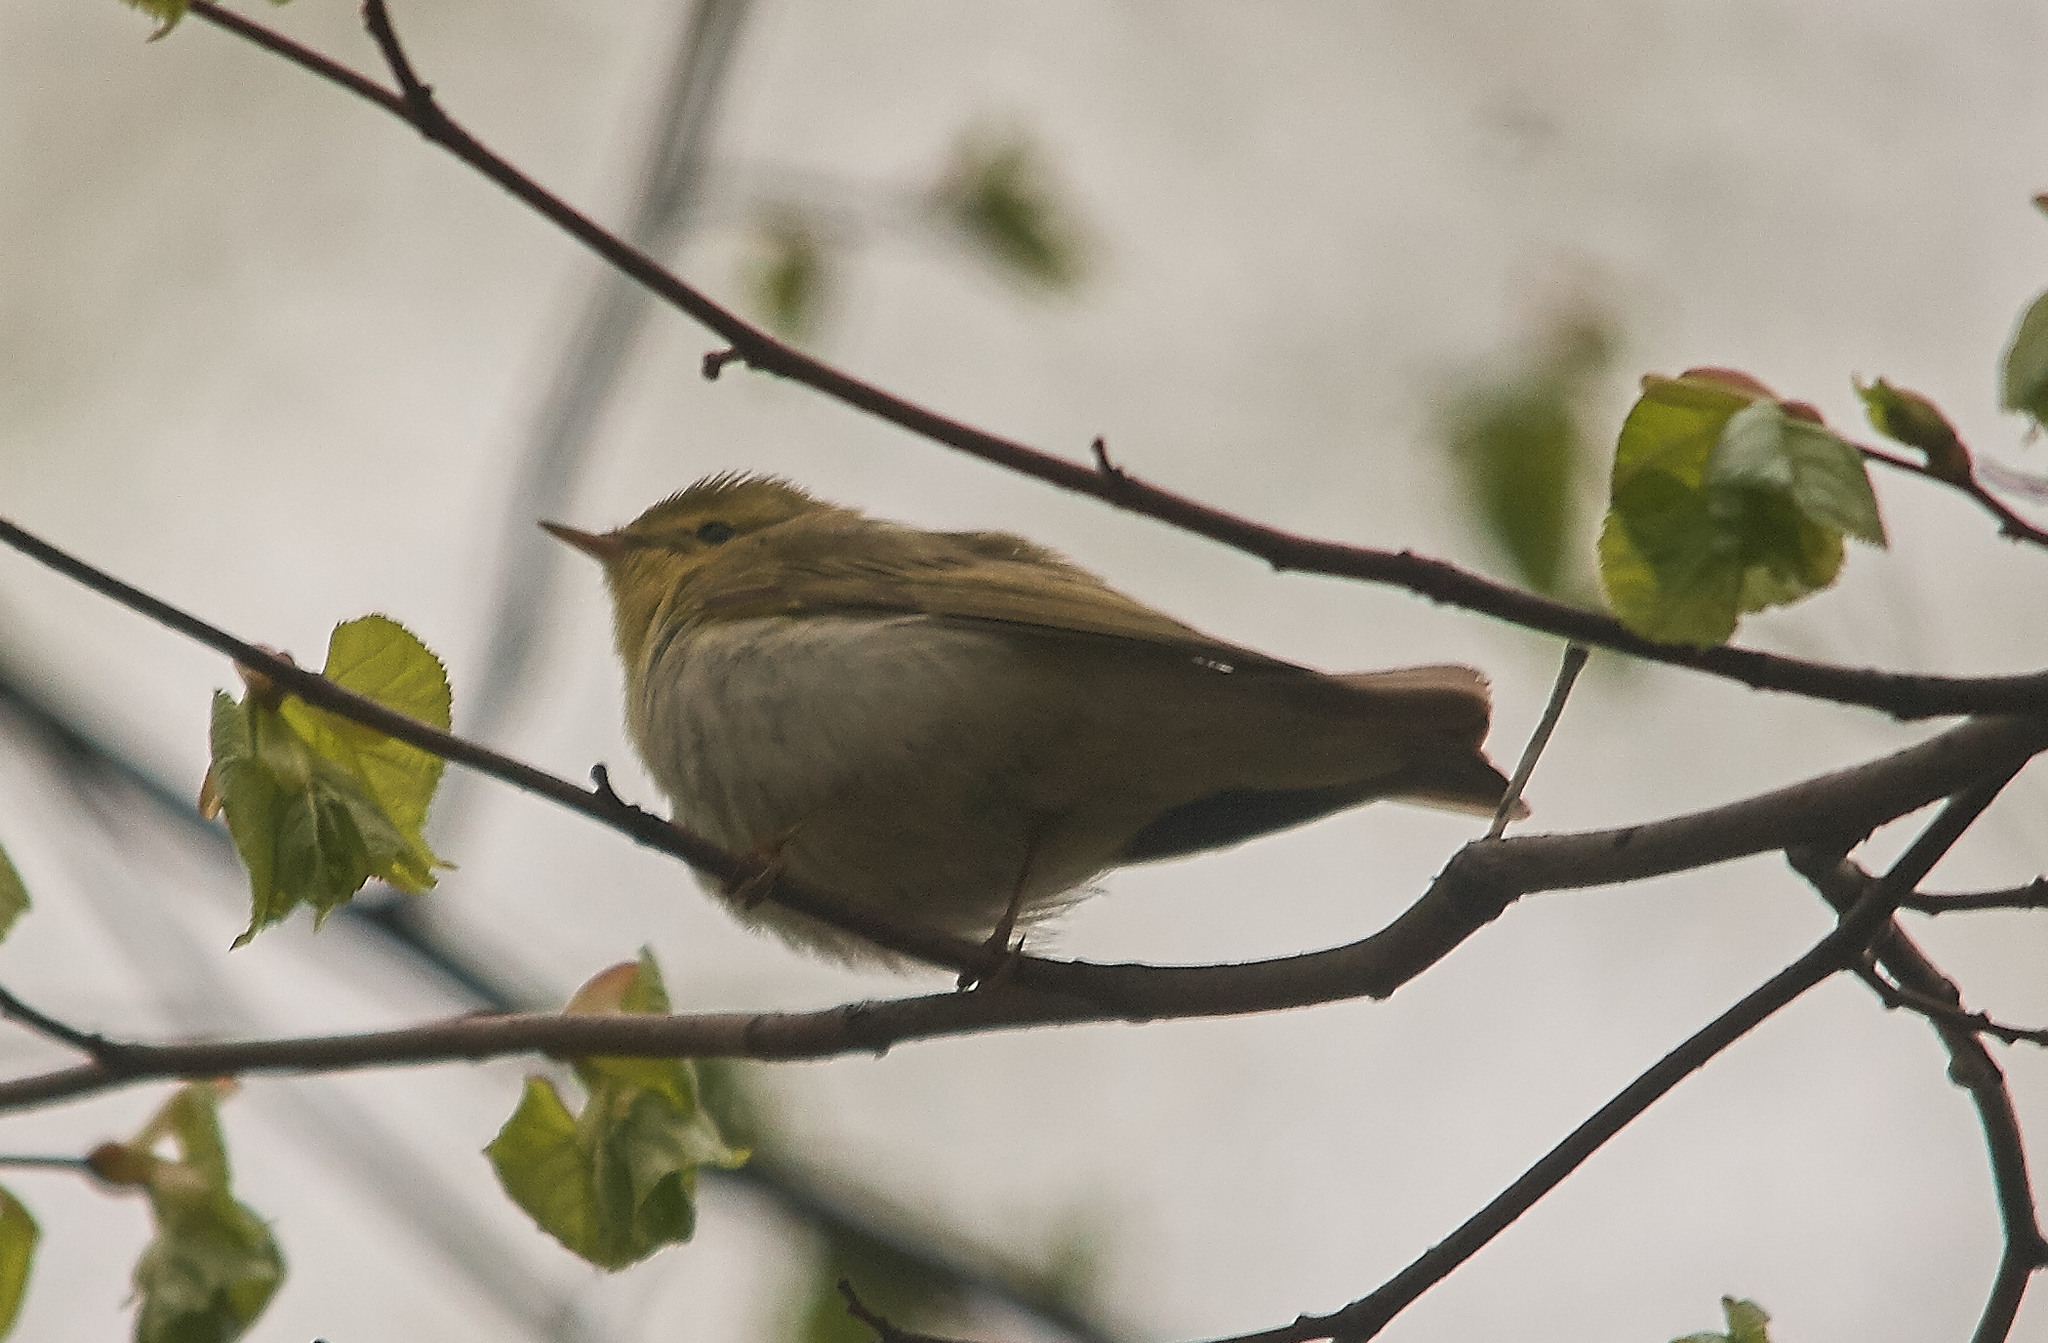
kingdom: Animalia
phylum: Chordata
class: Aves
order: Passeriformes
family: Phylloscopidae
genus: Phylloscopus
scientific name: Phylloscopus sibillatrix
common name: Wood warbler
